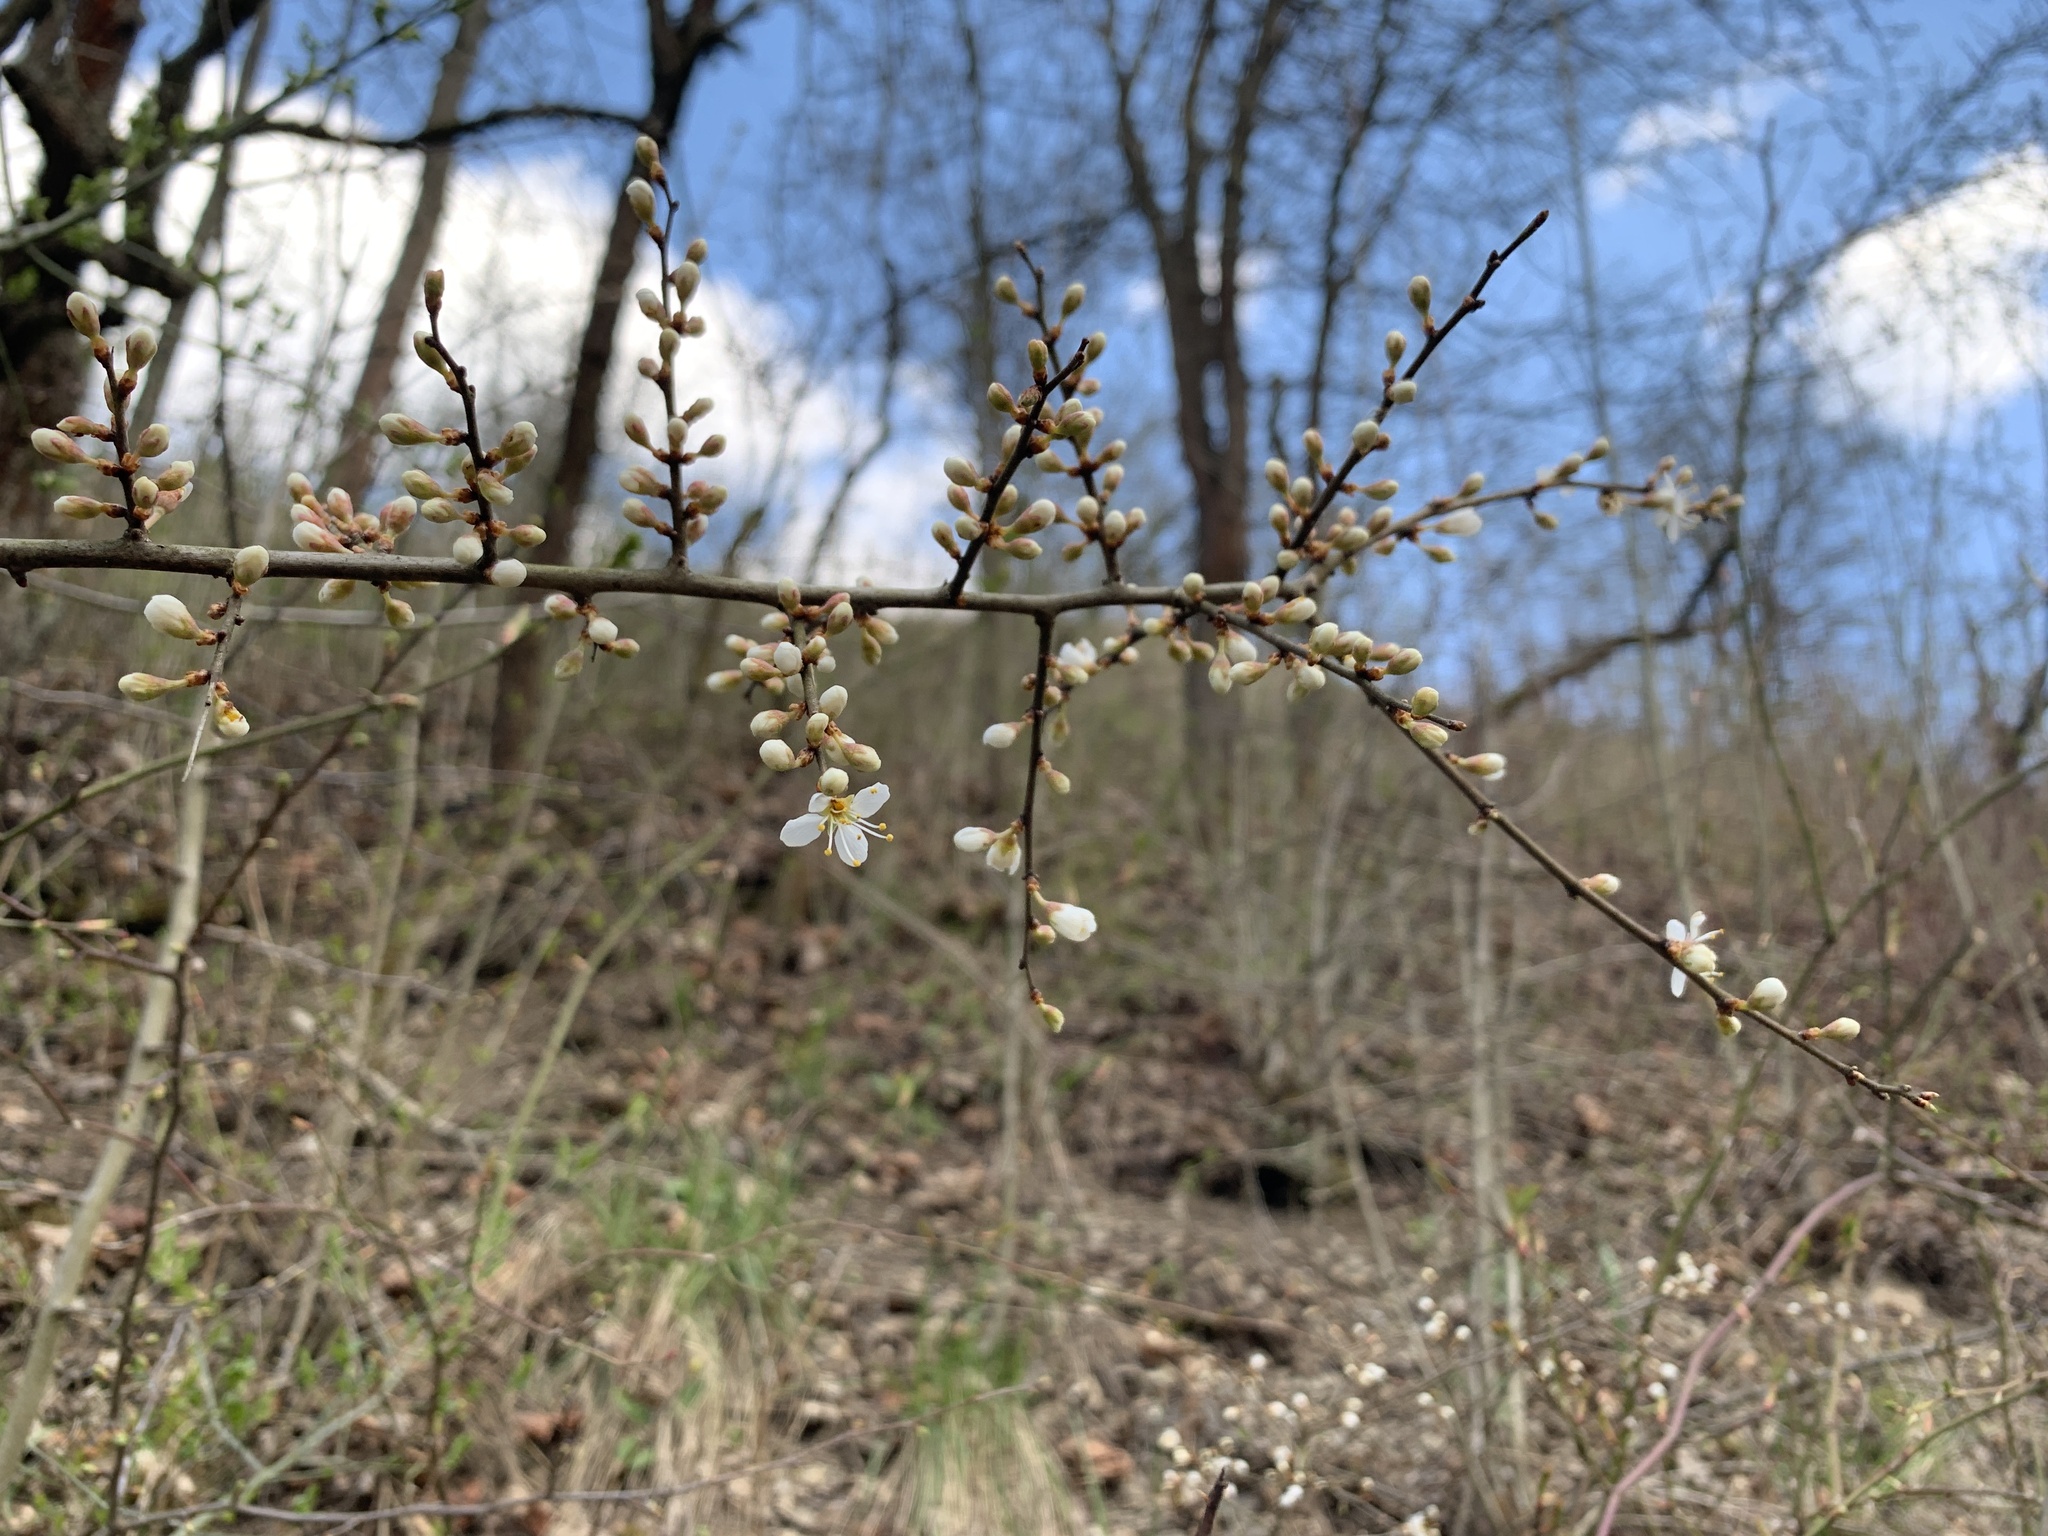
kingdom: Plantae
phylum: Tracheophyta
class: Magnoliopsida
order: Rosales
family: Rosaceae
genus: Prunus
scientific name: Prunus spinosa
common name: Blackthorn
